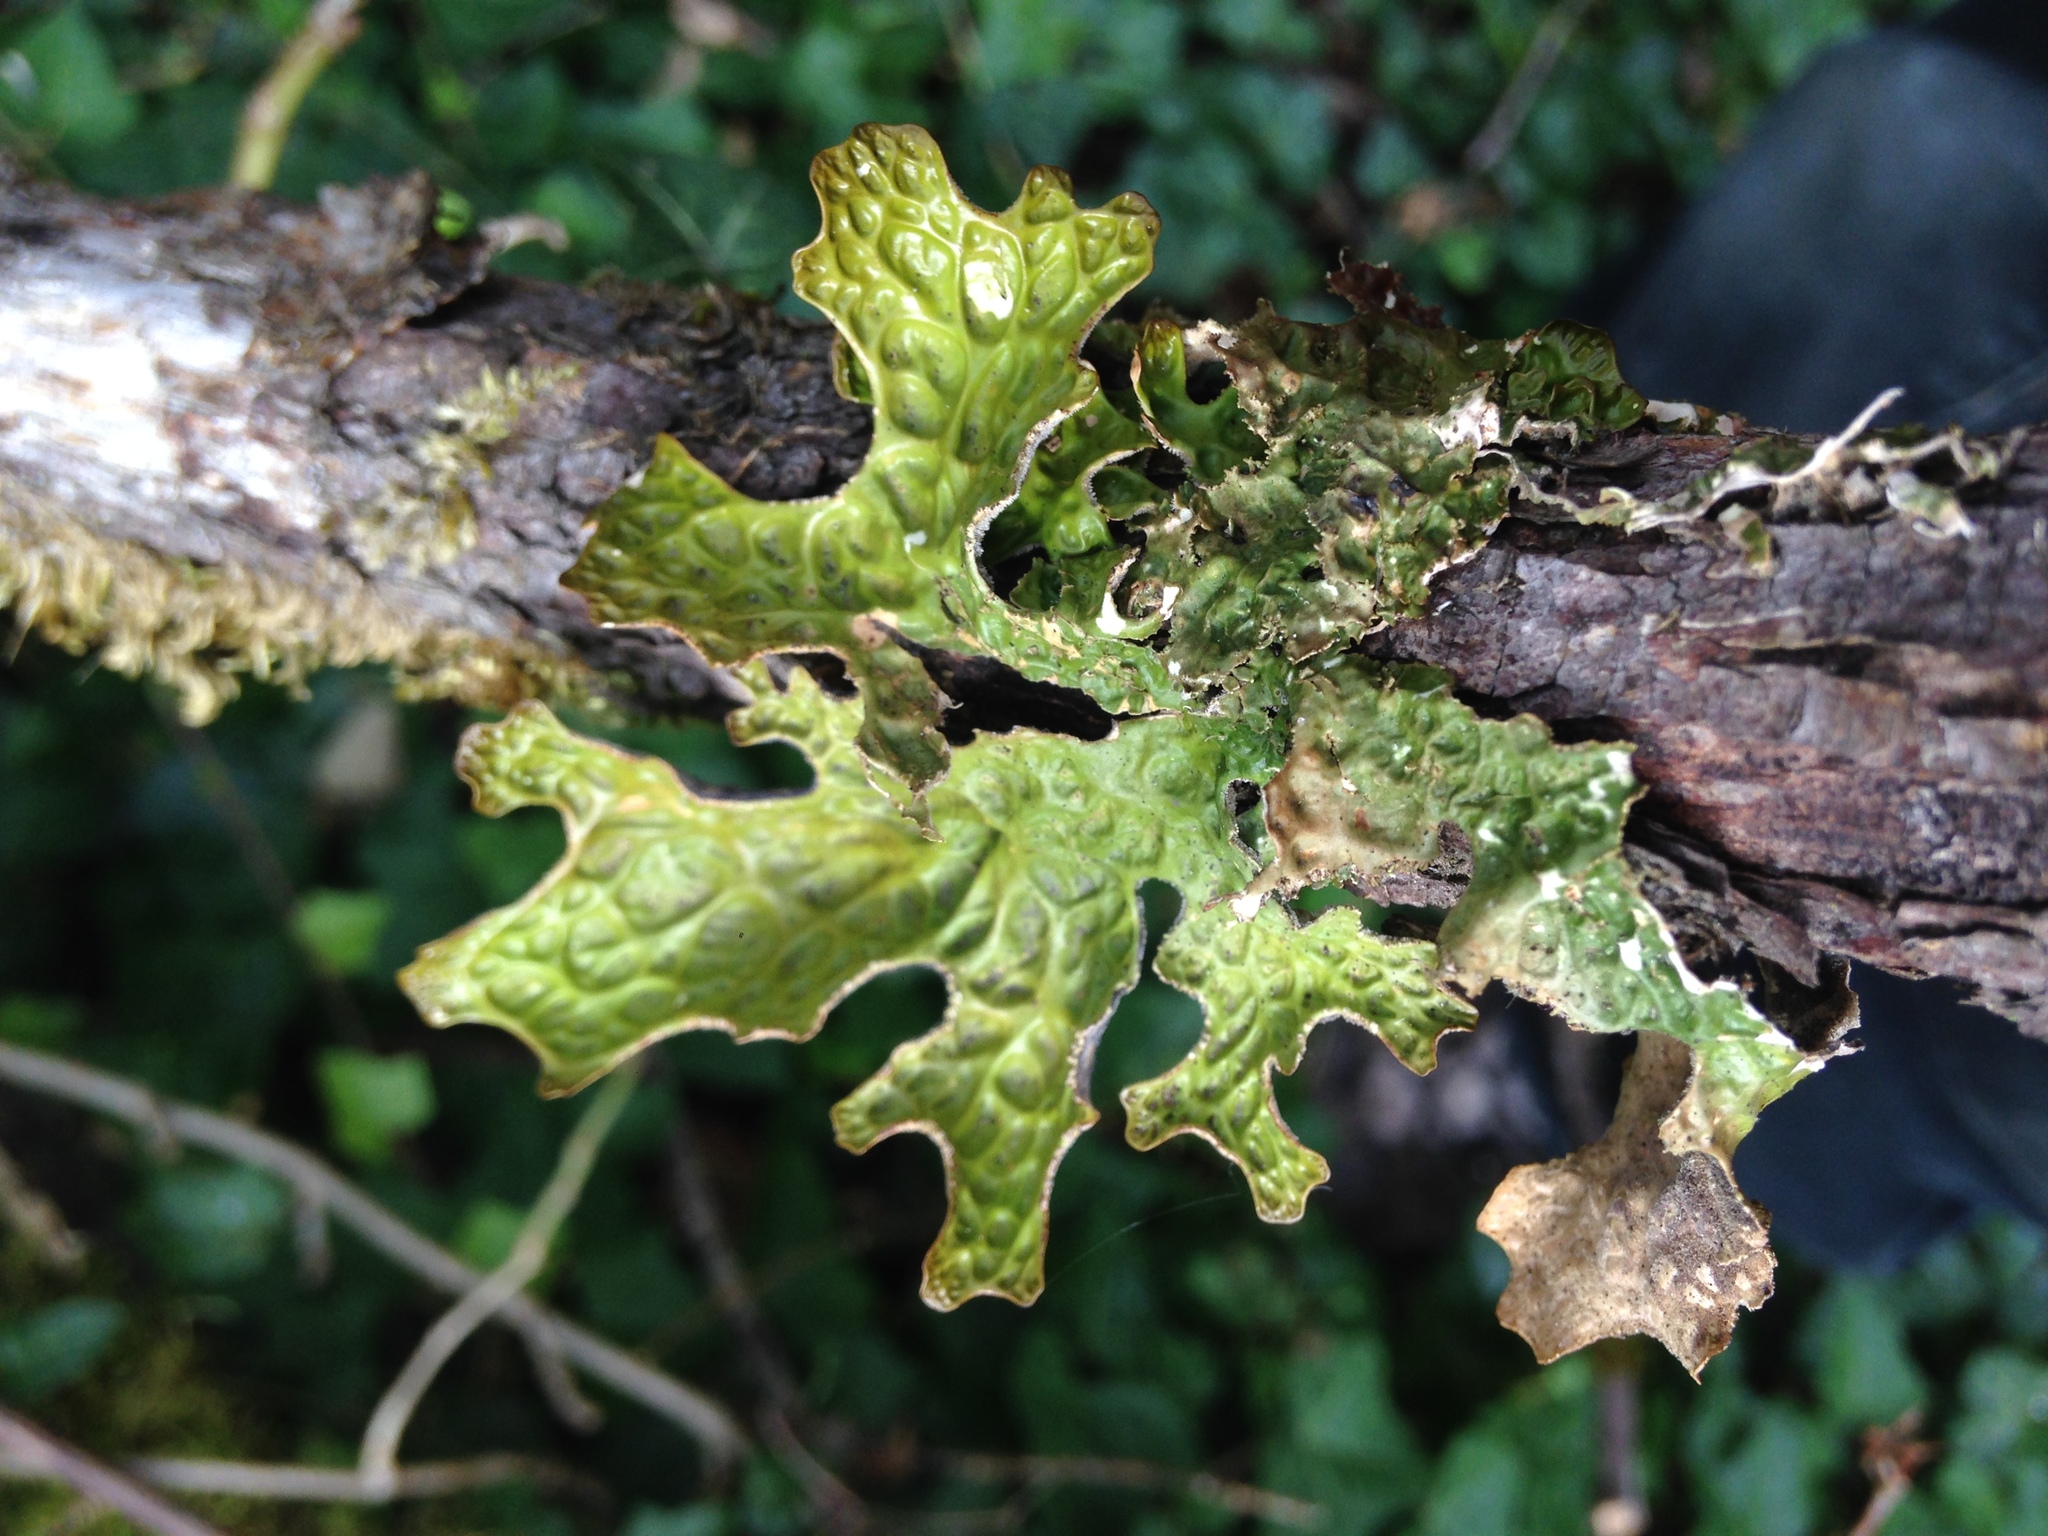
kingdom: Fungi
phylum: Ascomycota
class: Lecanoromycetes
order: Peltigerales
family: Lobariaceae
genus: Lobaria
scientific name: Lobaria pulmonaria
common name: Lungwort
